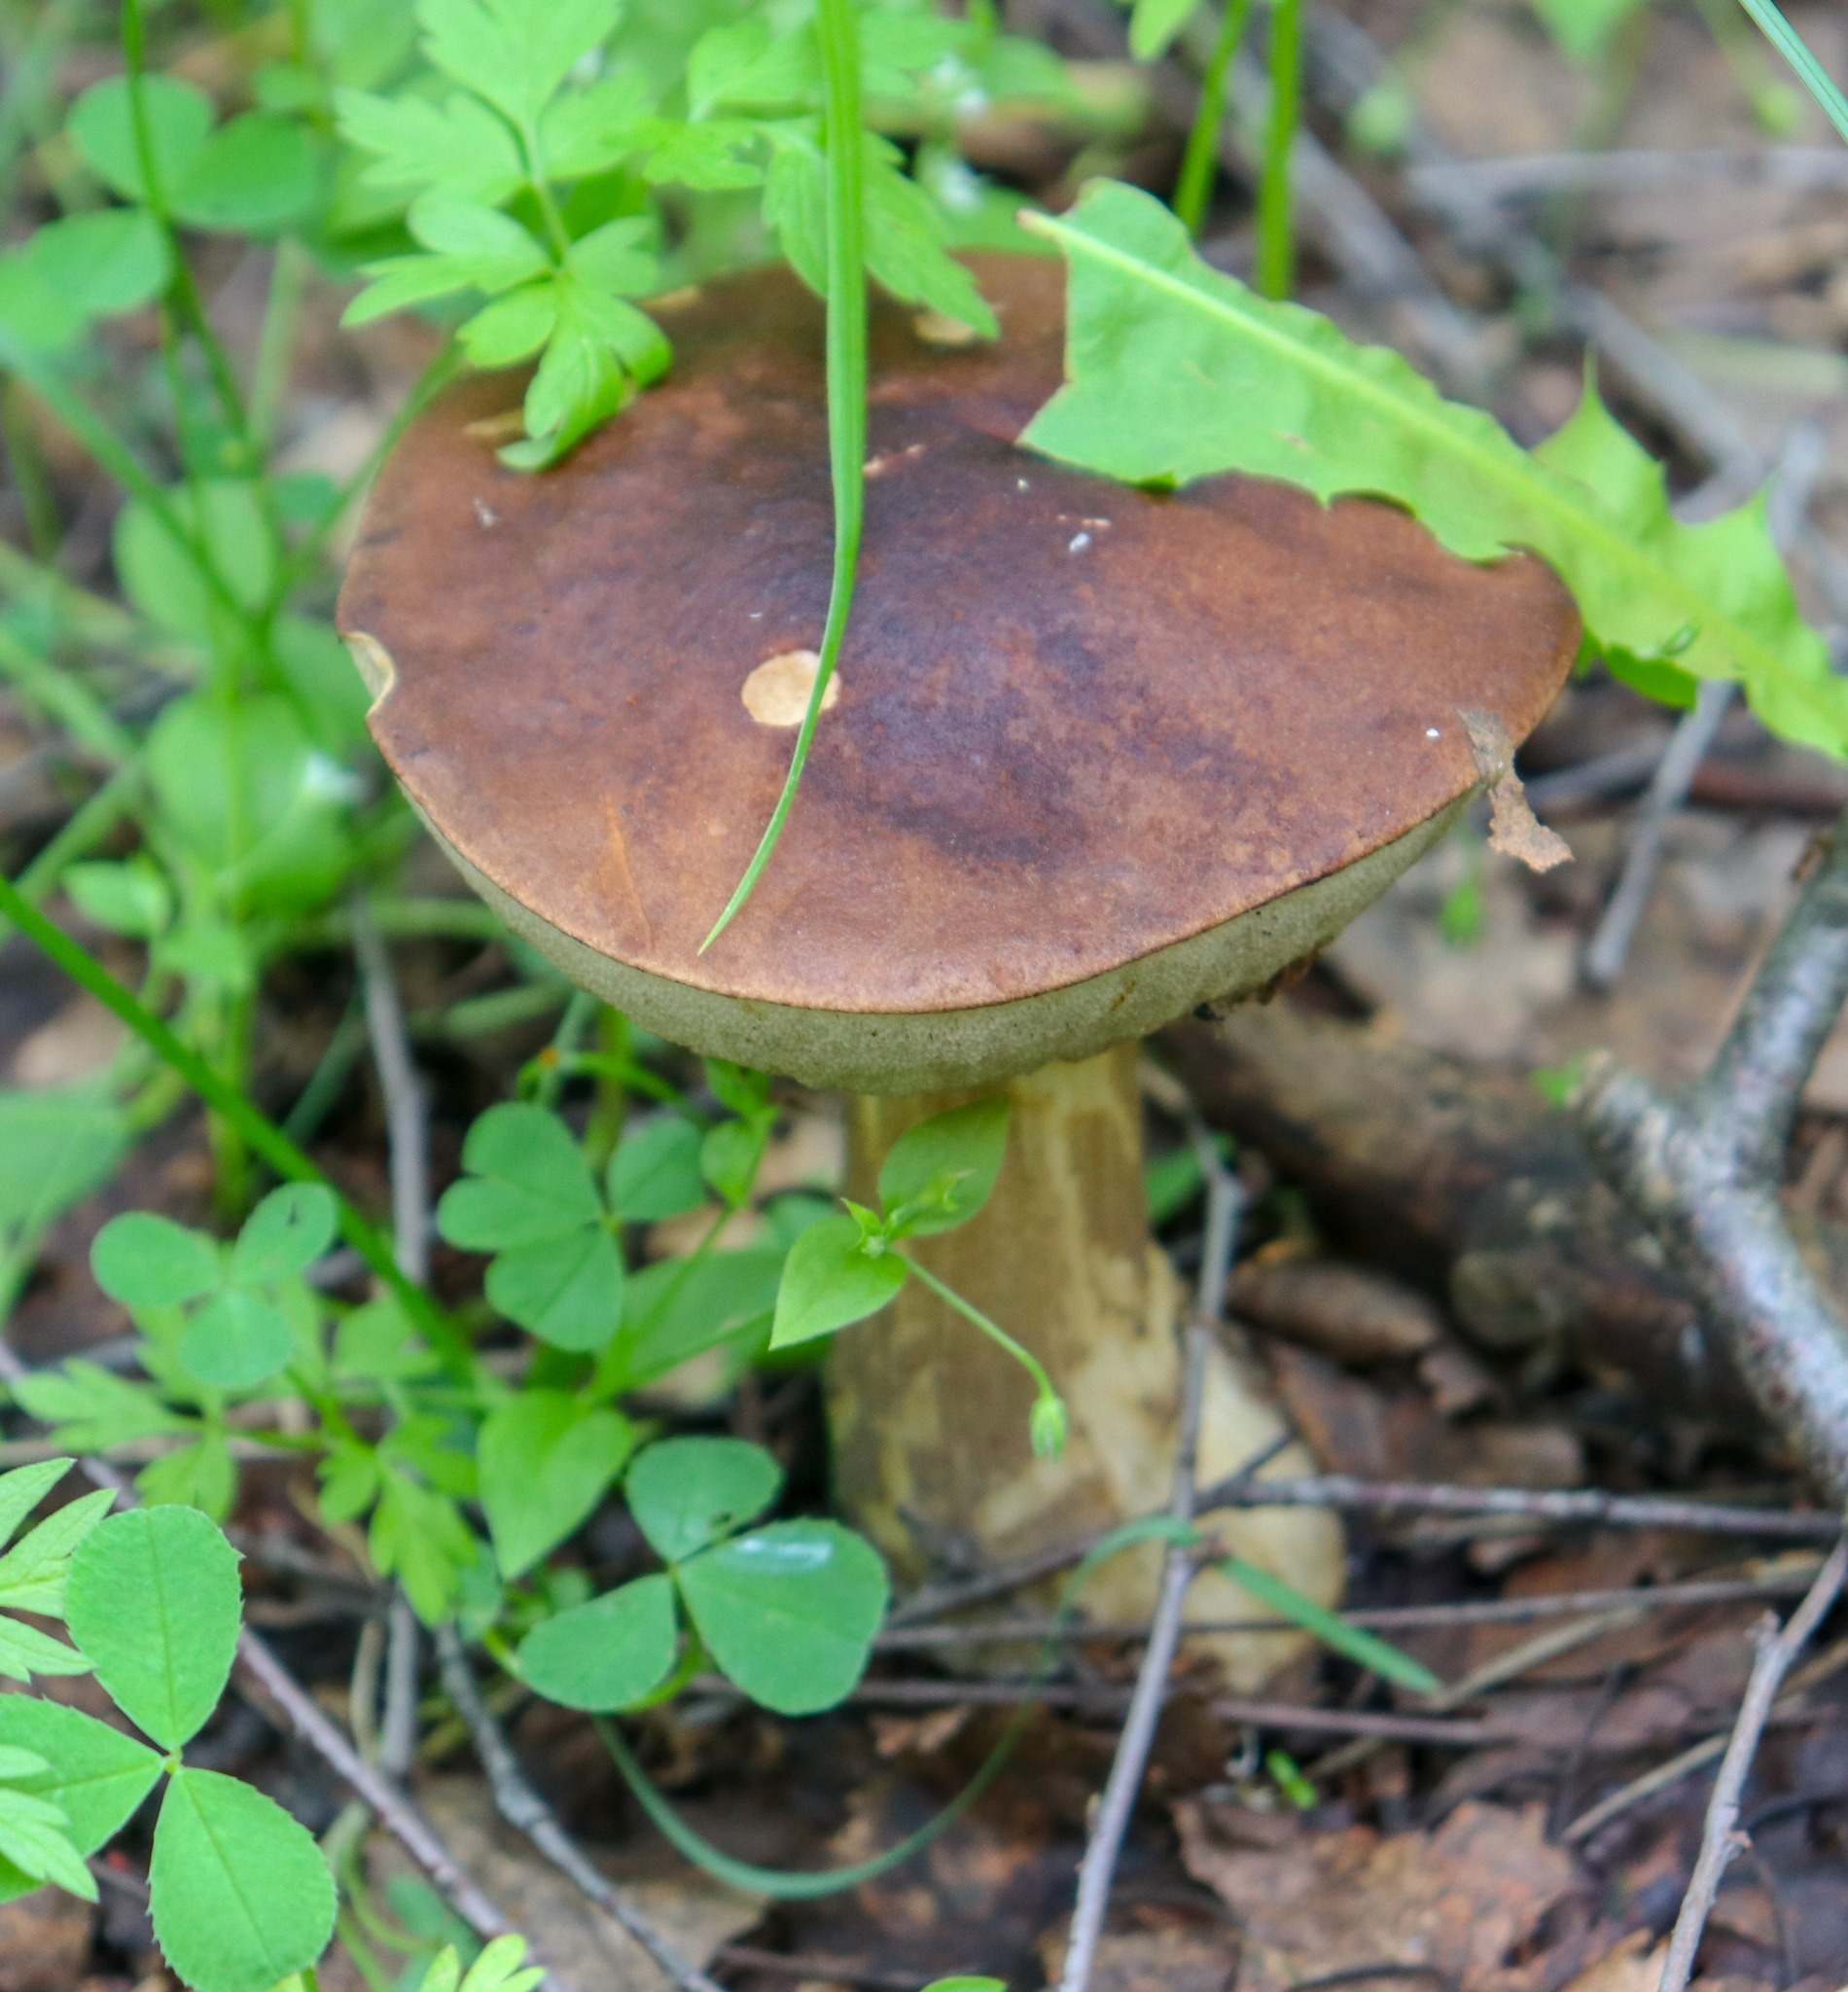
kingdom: Fungi
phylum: Basidiomycota
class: Agaricomycetes
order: Boletales
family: Boletaceae
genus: Leccinum
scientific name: Leccinum scabrum
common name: Blushing bolete
